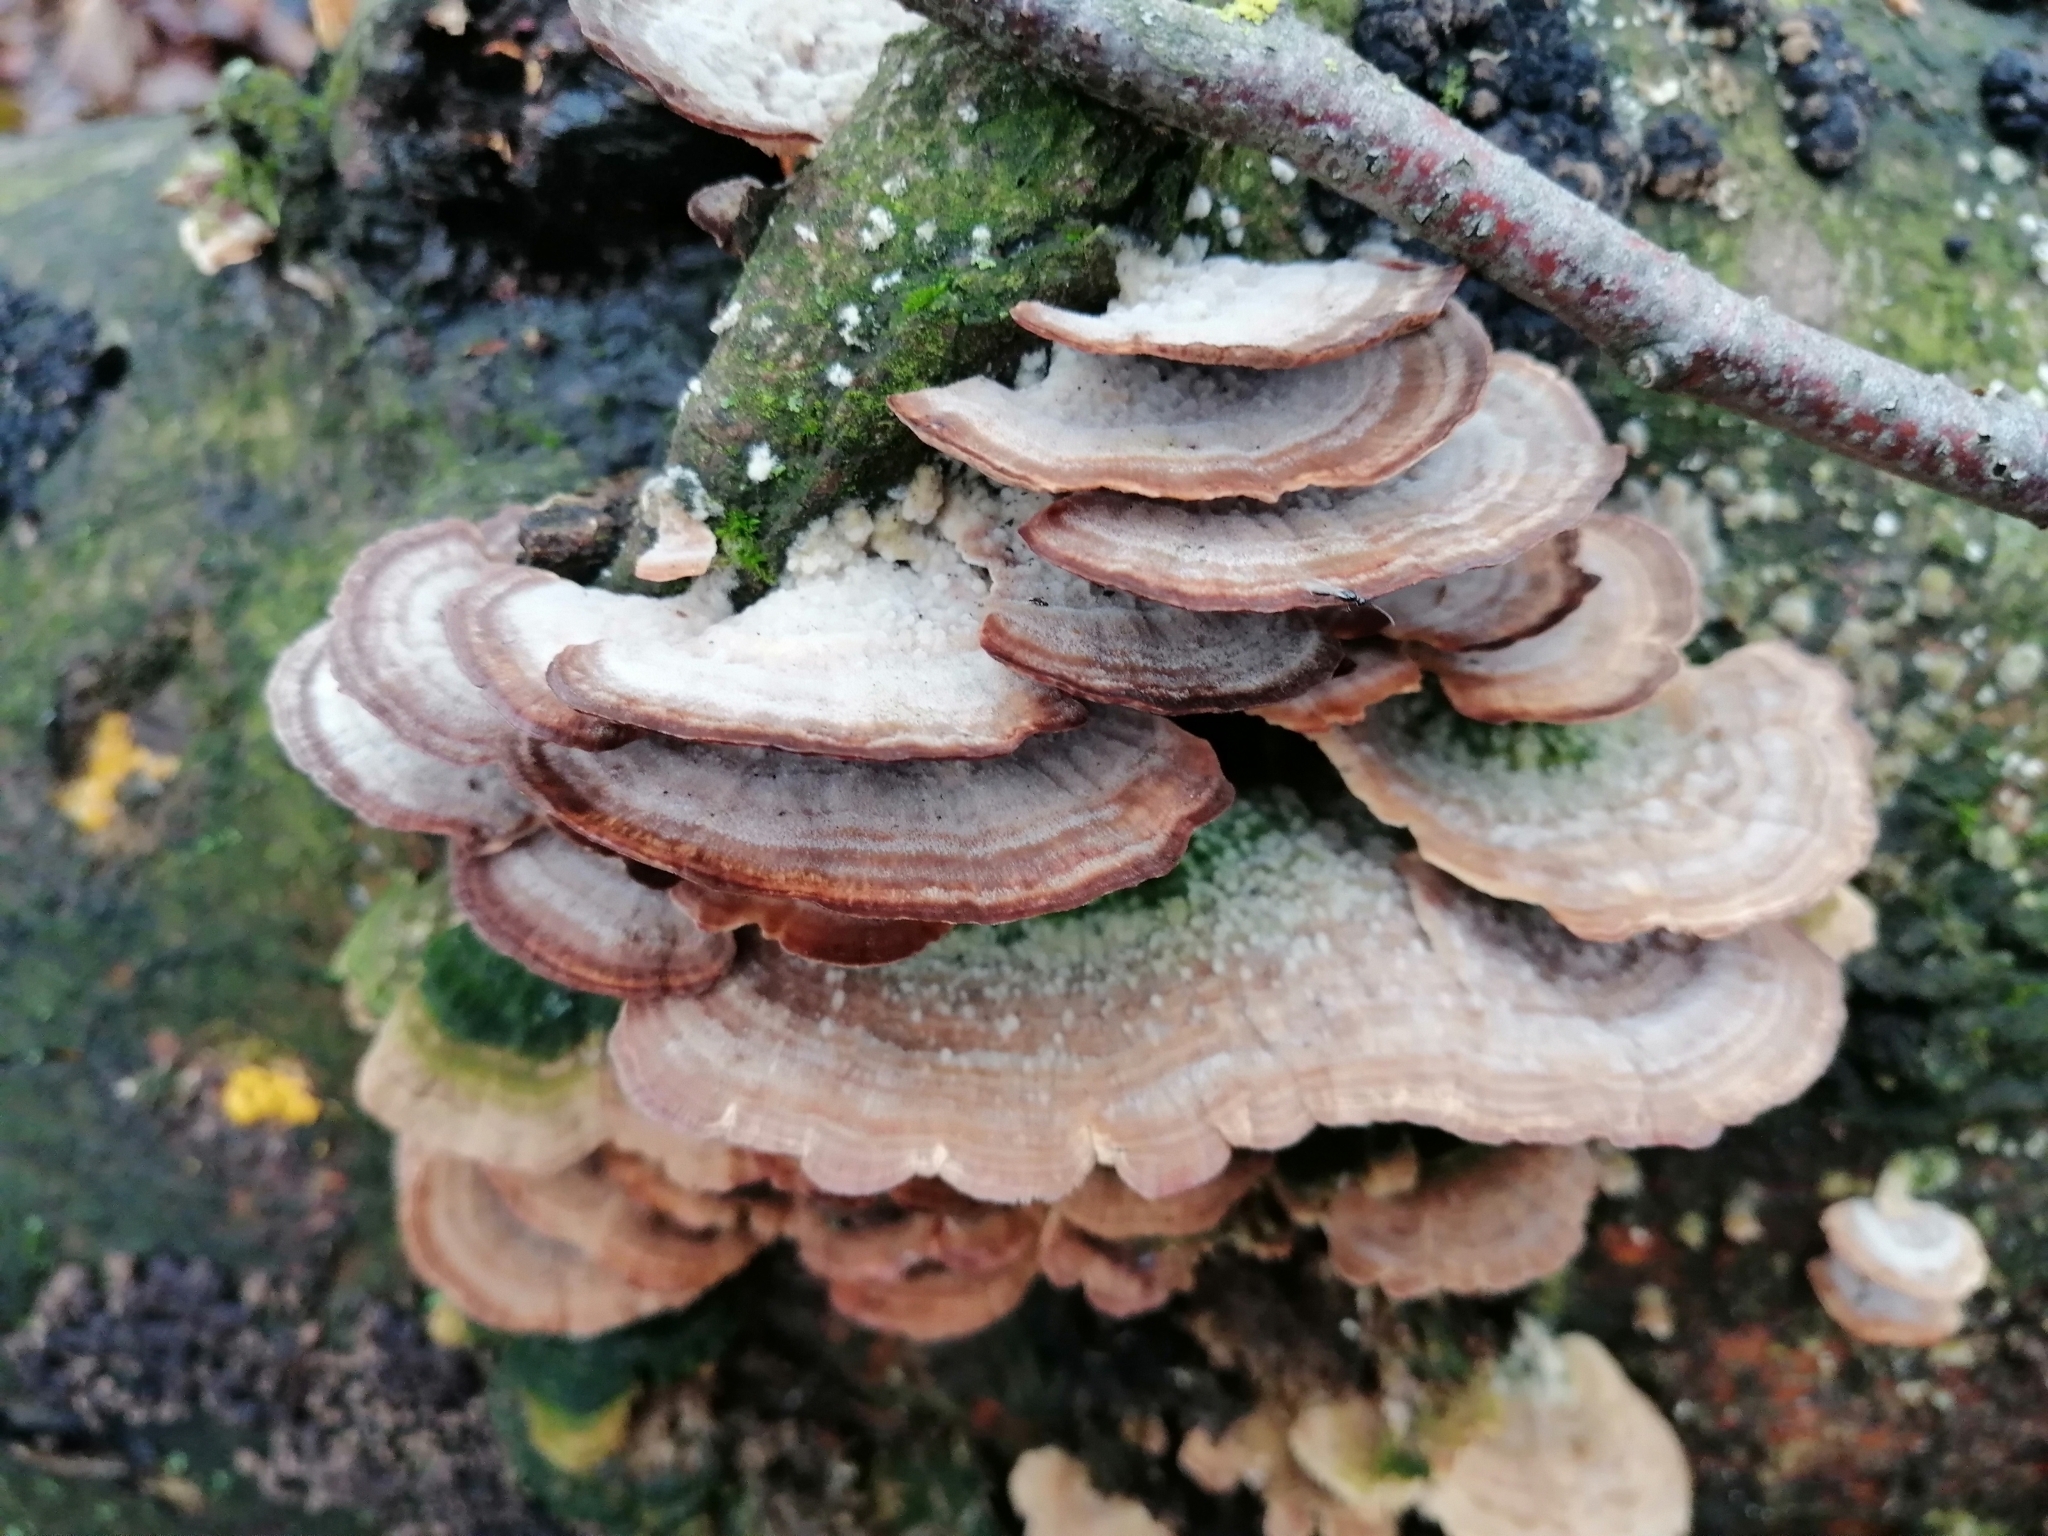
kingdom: Fungi
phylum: Basidiomycota
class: Agaricomycetes
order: Hymenochaetales
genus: Trichaptum
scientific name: Trichaptum biforme
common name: Violet-toothed polypore
